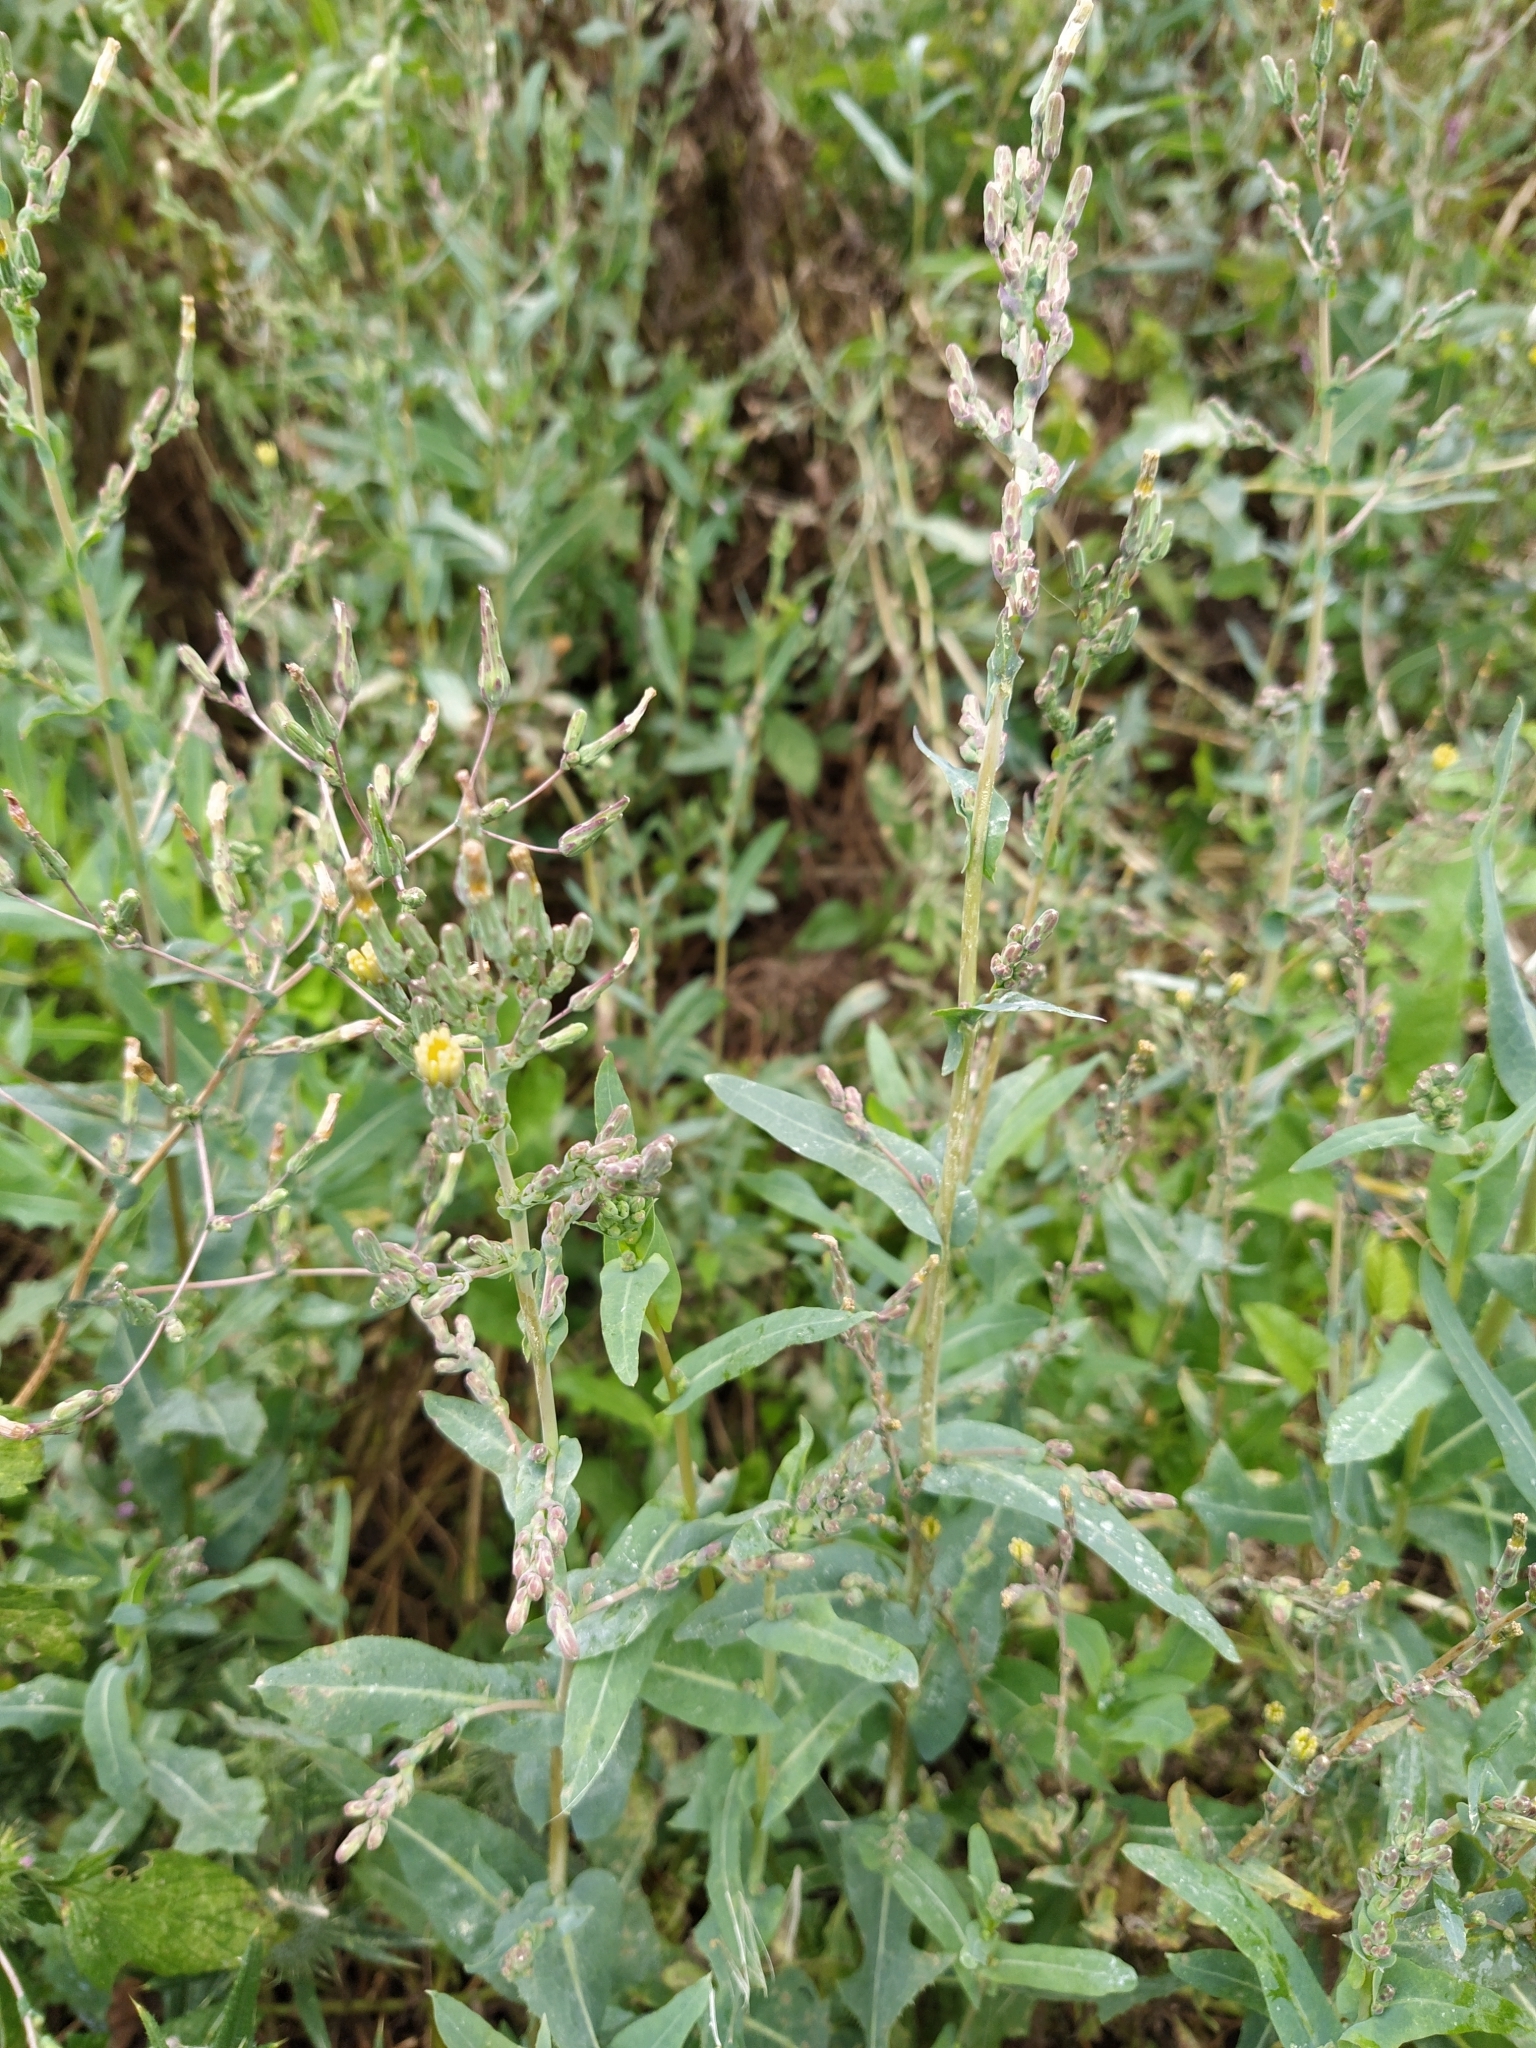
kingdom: Plantae
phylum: Tracheophyta
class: Magnoliopsida
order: Asterales
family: Asteraceae
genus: Lactuca
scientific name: Lactuca serriola
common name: Prickly lettuce
